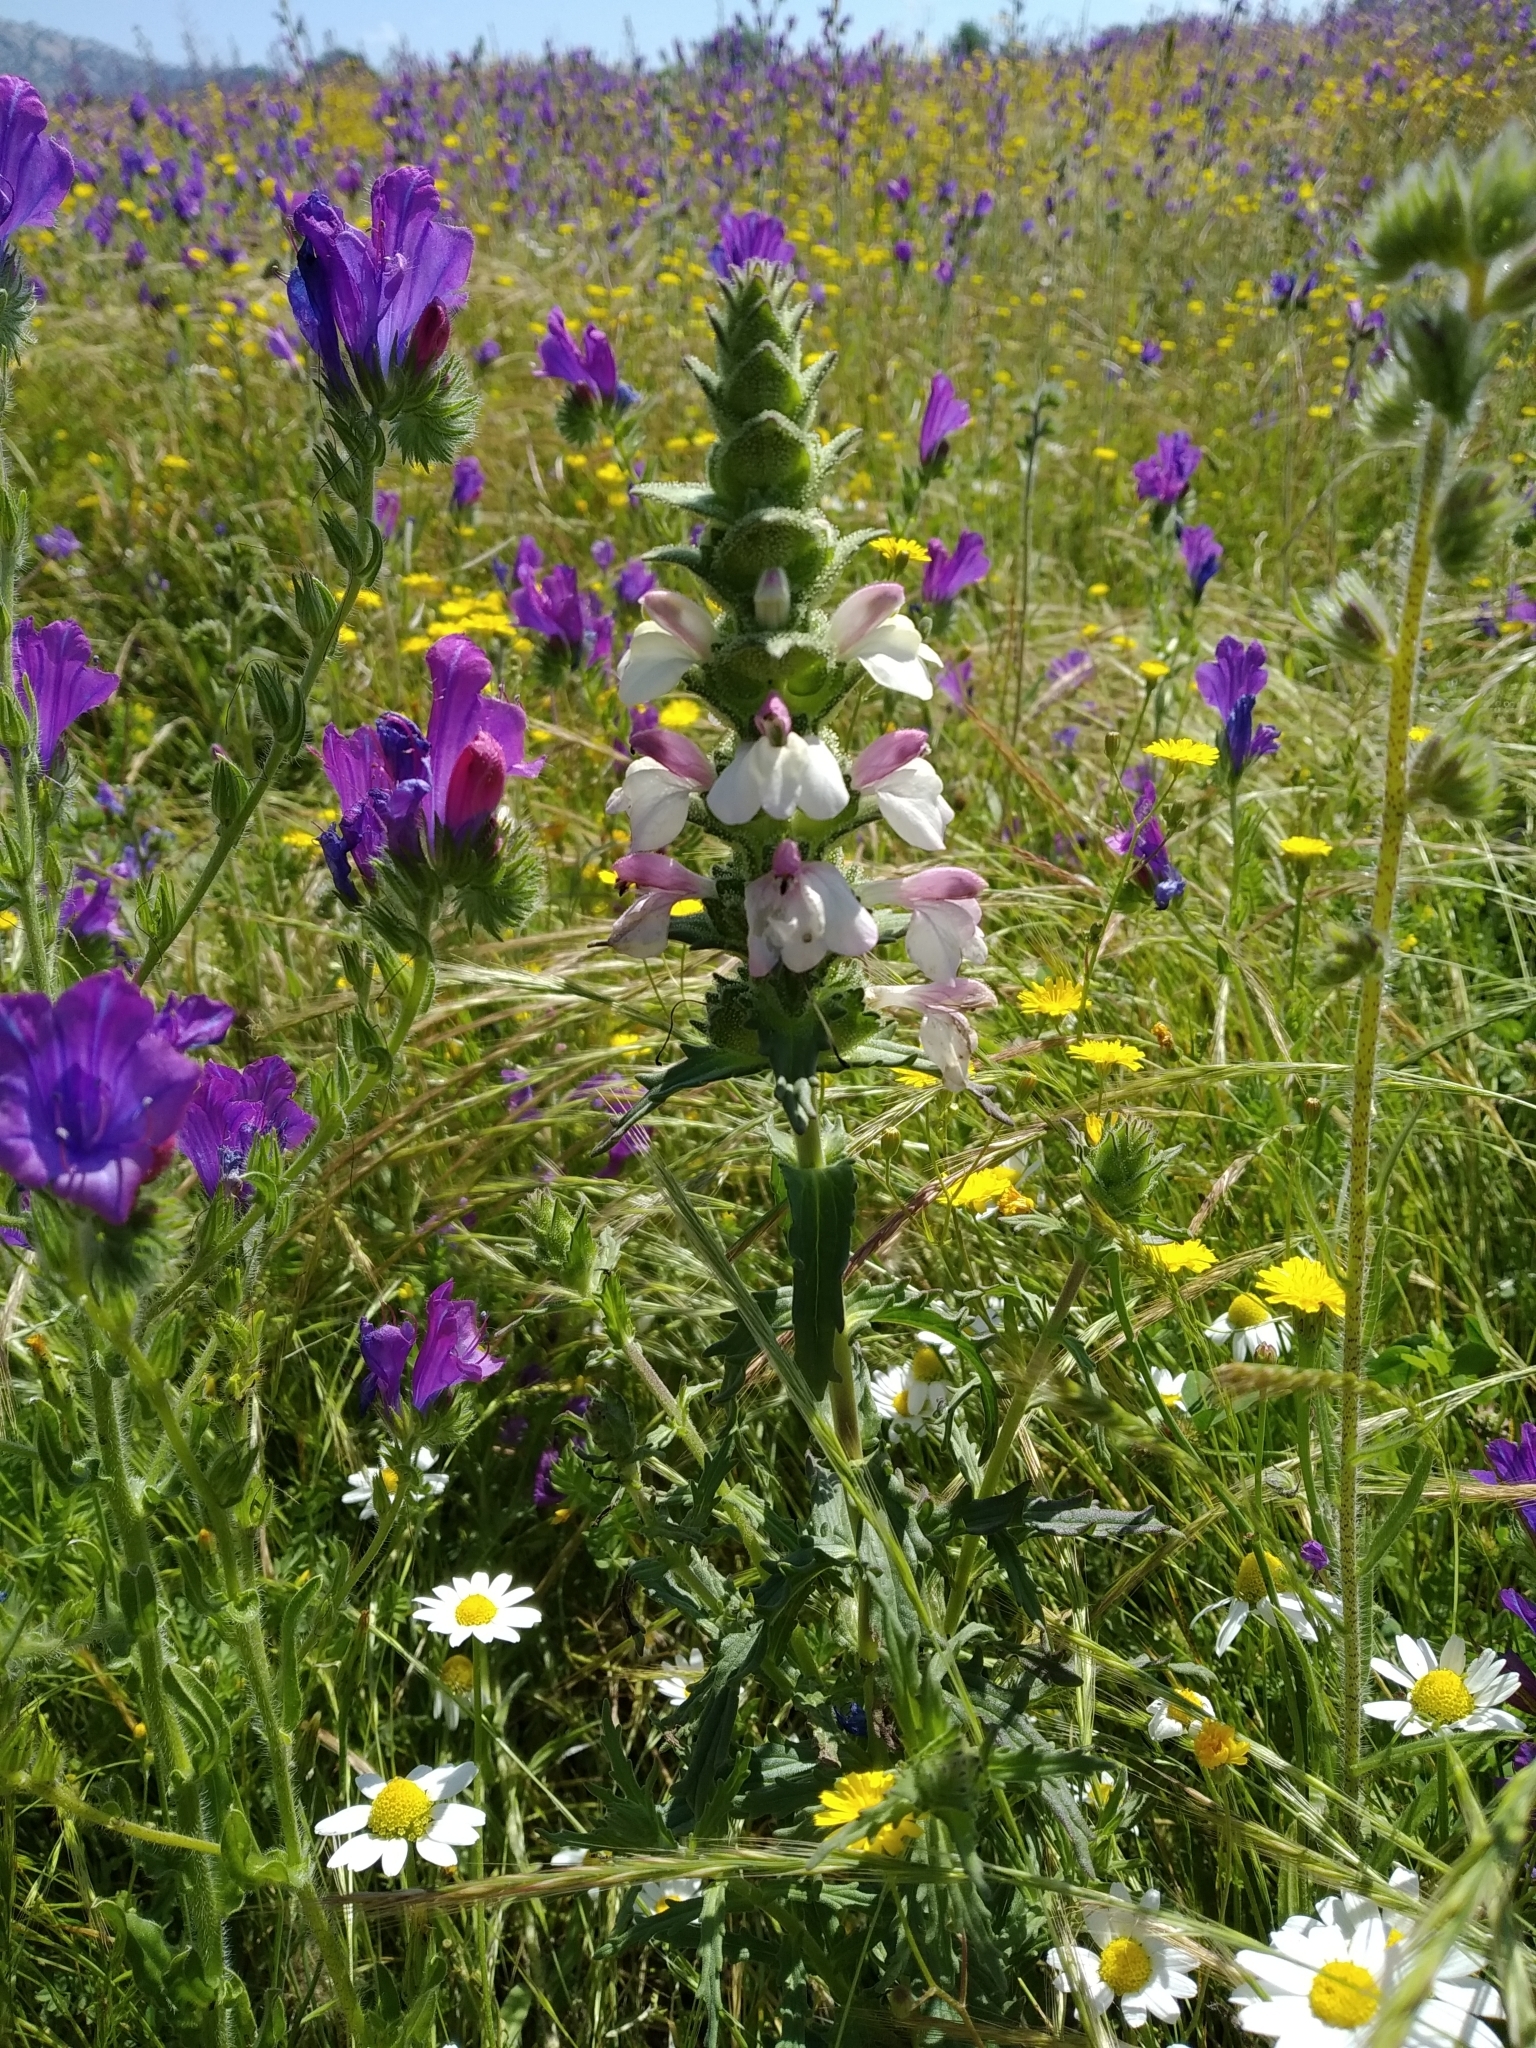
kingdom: Plantae
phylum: Tracheophyta
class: Magnoliopsida
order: Lamiales
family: Orobanchaceae
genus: Bellardia
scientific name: Bellardia trixago
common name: Mediterranean lineseed
